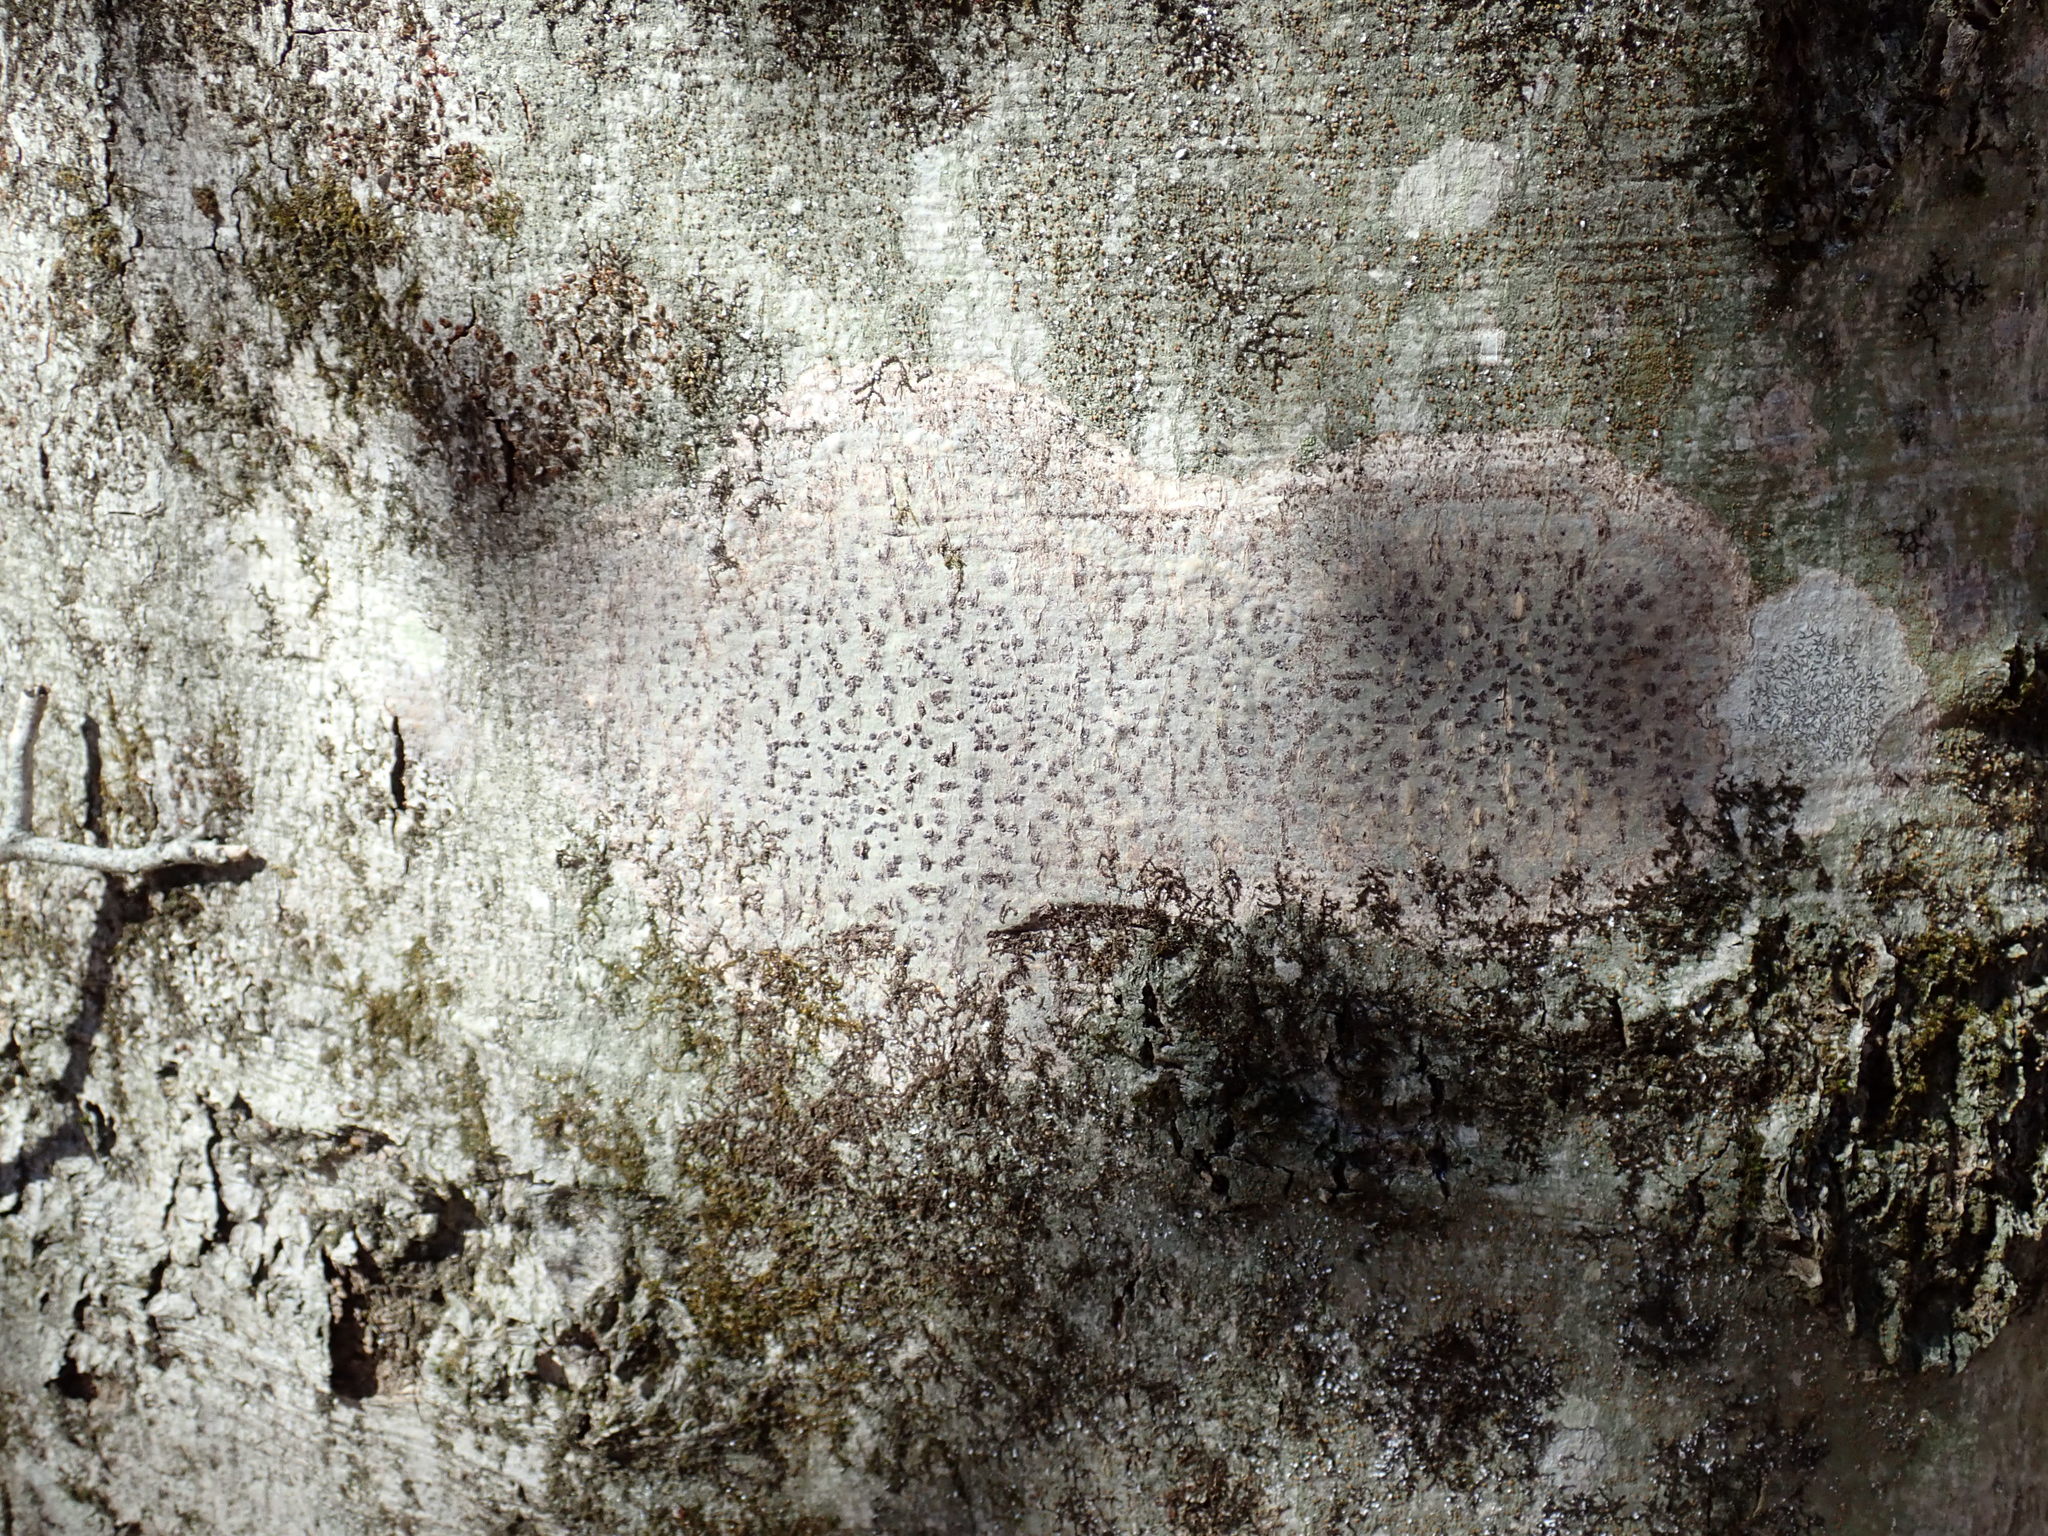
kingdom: Fungi
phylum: Ascomycota
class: Dothideomycetes
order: Trypetheliales
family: Trypetheliaceae
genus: Viridothelium
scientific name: Viridothelium virens
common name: Speckled blister lichen
